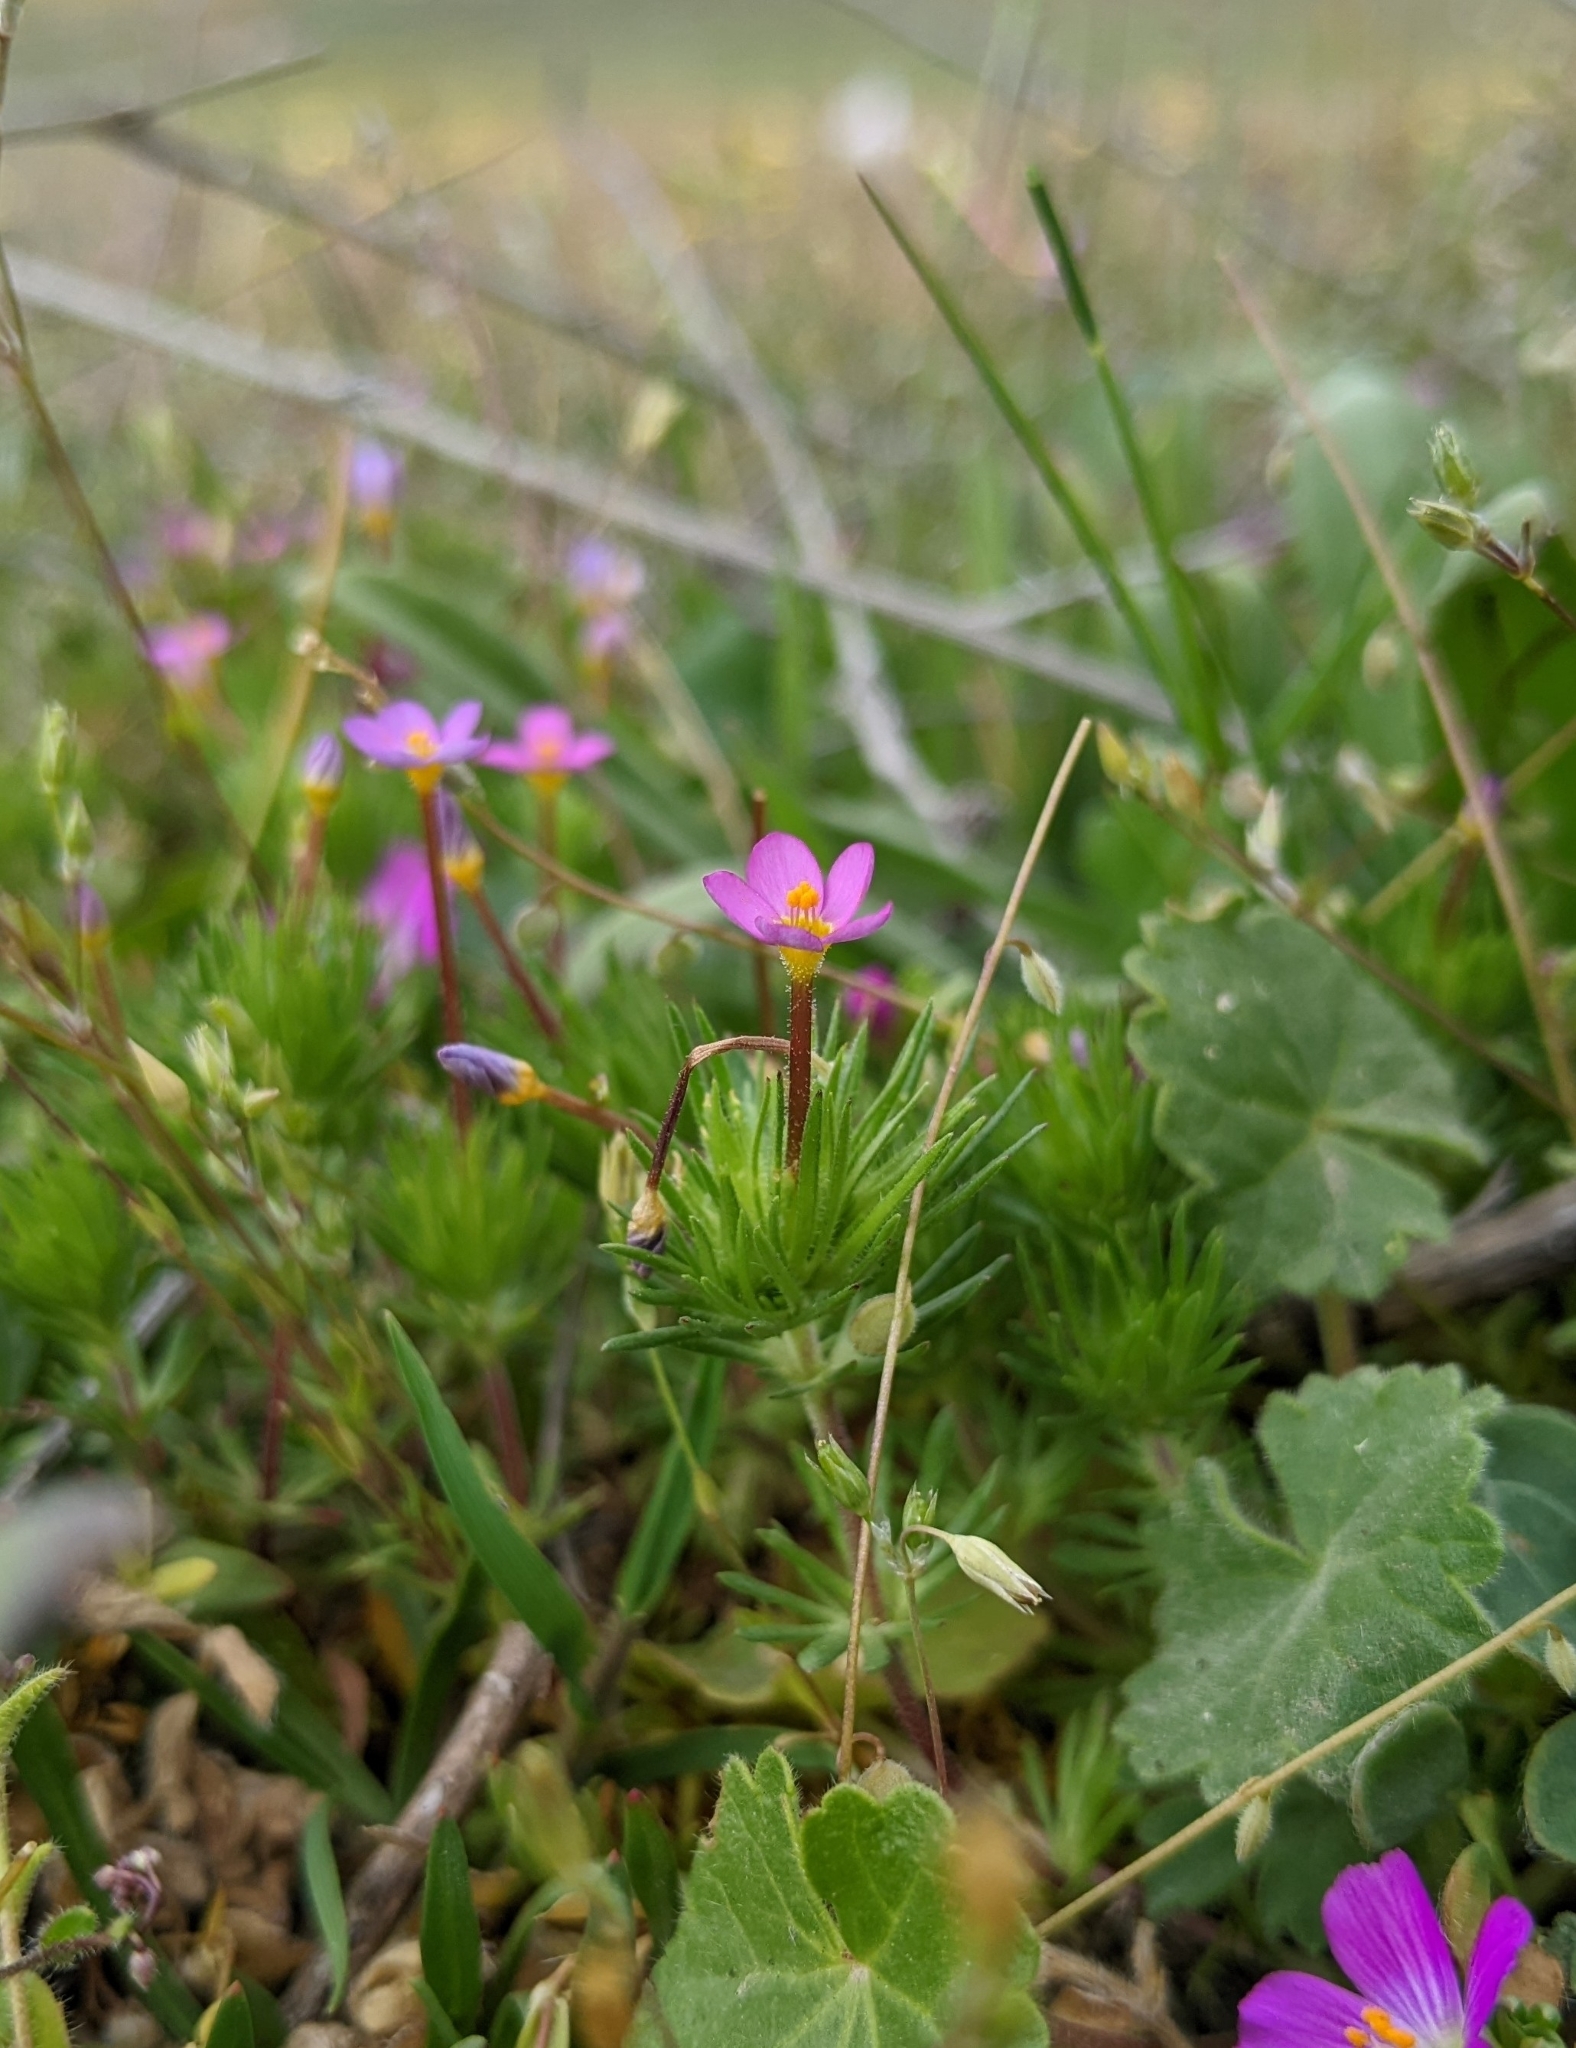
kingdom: Plantae
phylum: Tracheophyta
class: Magnoliopsida
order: Ericales
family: Polemoniaceae
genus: Leptosiphon
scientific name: Leptosiphon bicolor
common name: True babystars
